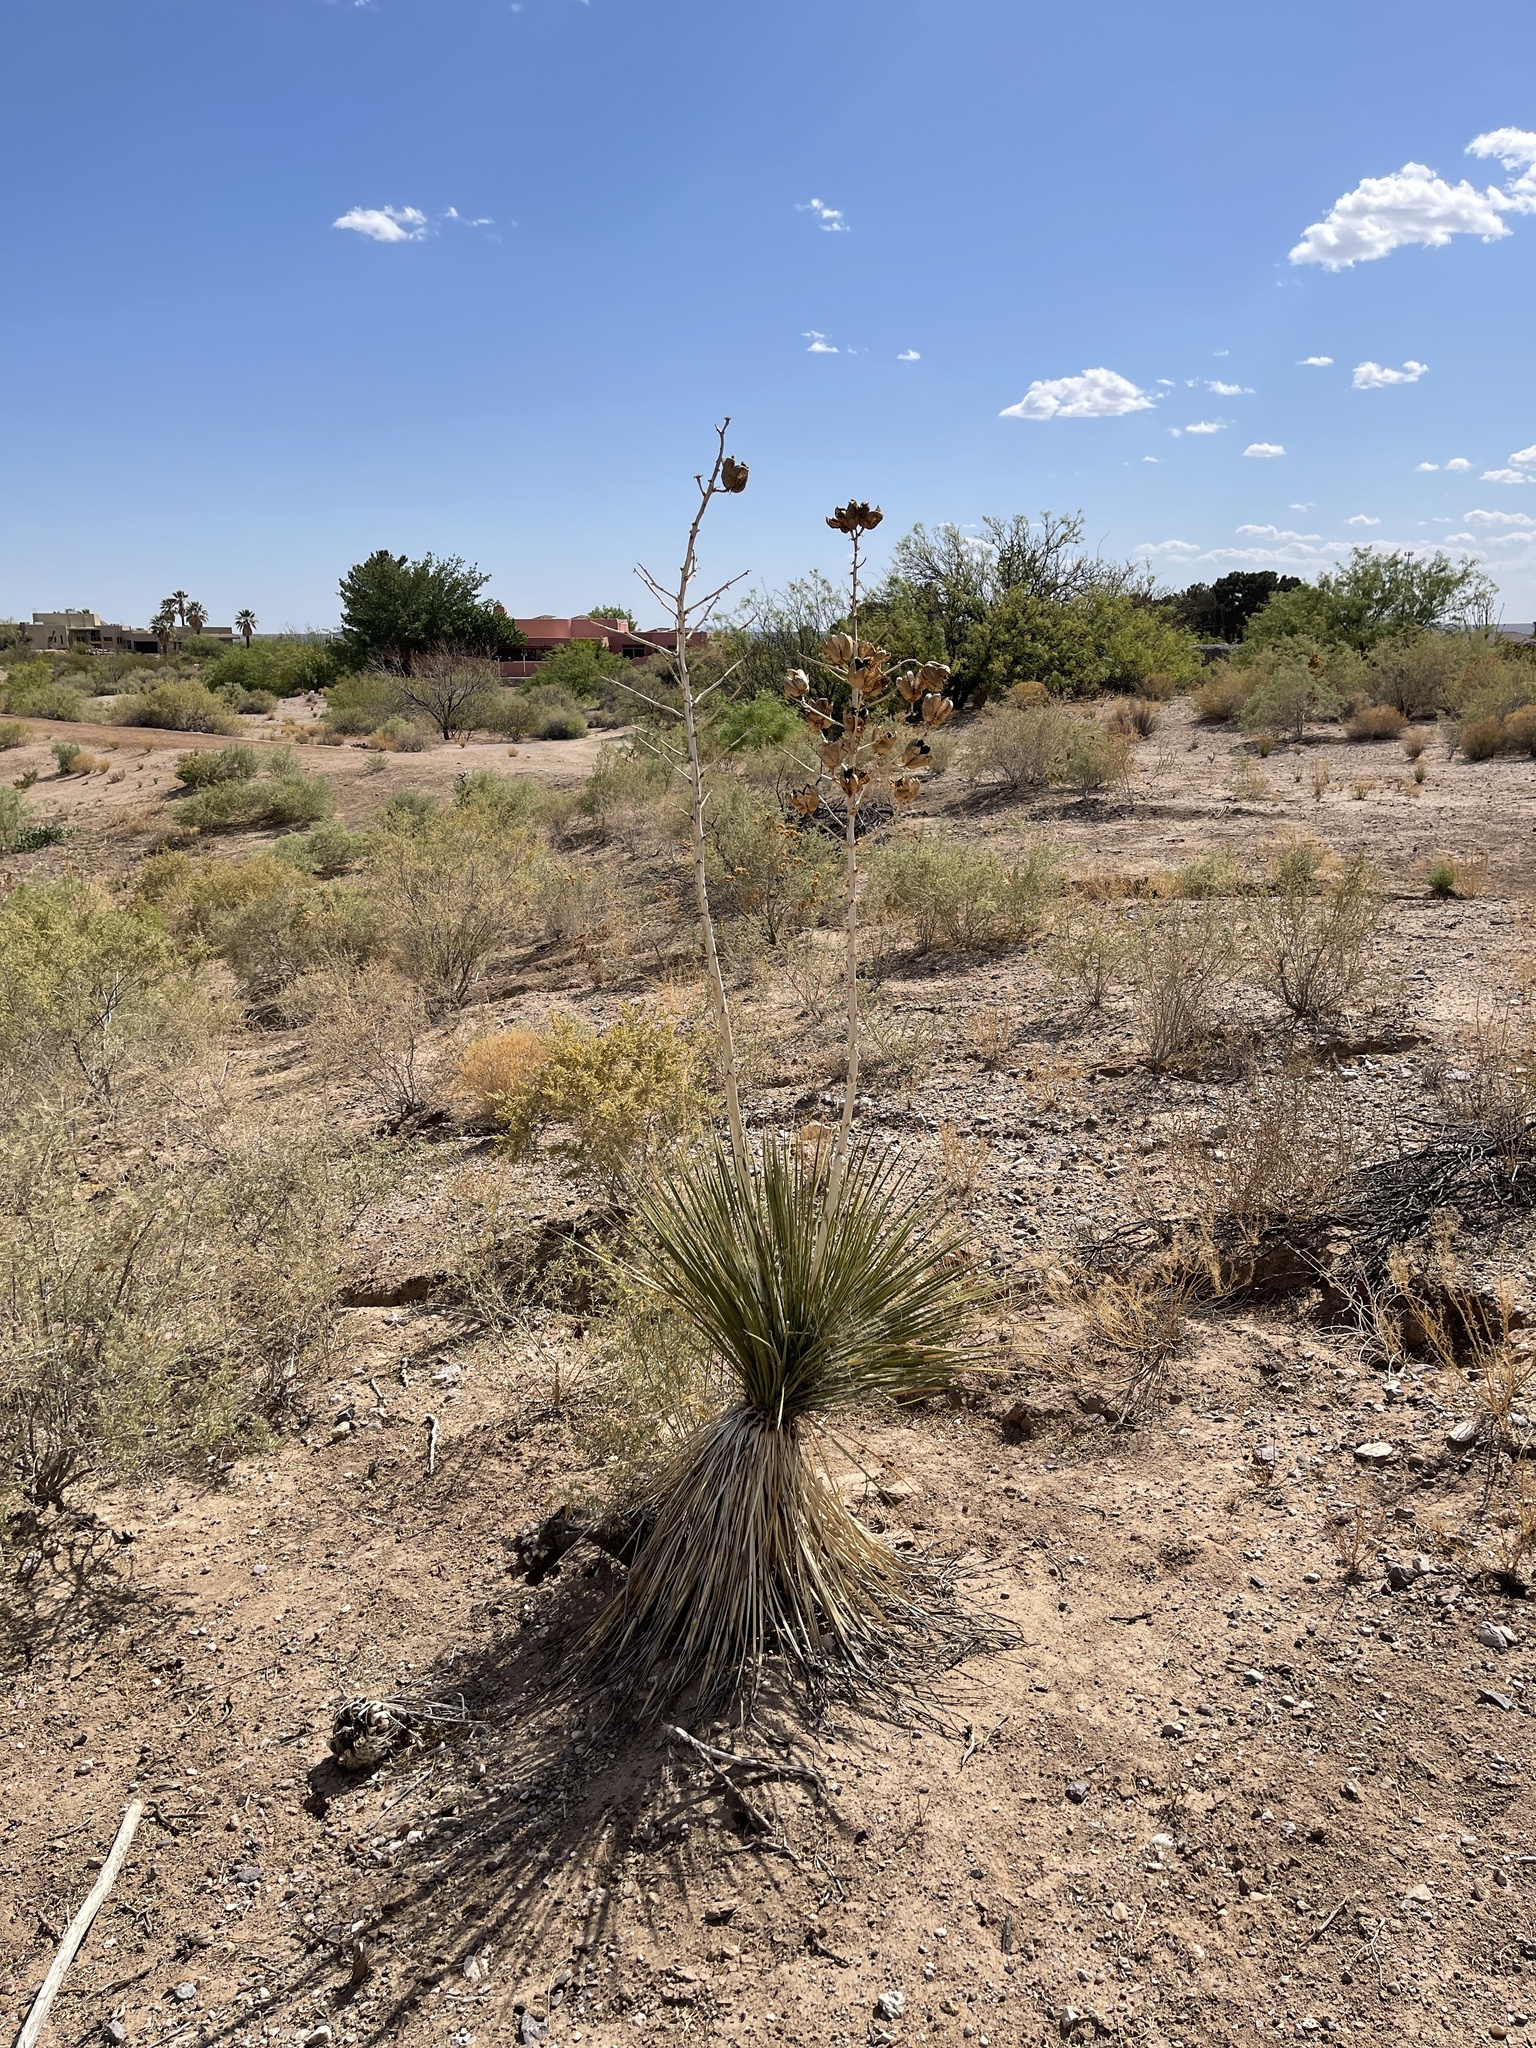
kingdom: Plantae
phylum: Tracheophyta
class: Liliopsida
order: Asparagales
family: Asparagaceae
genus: Yucca
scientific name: Yucca elata
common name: Palmella
